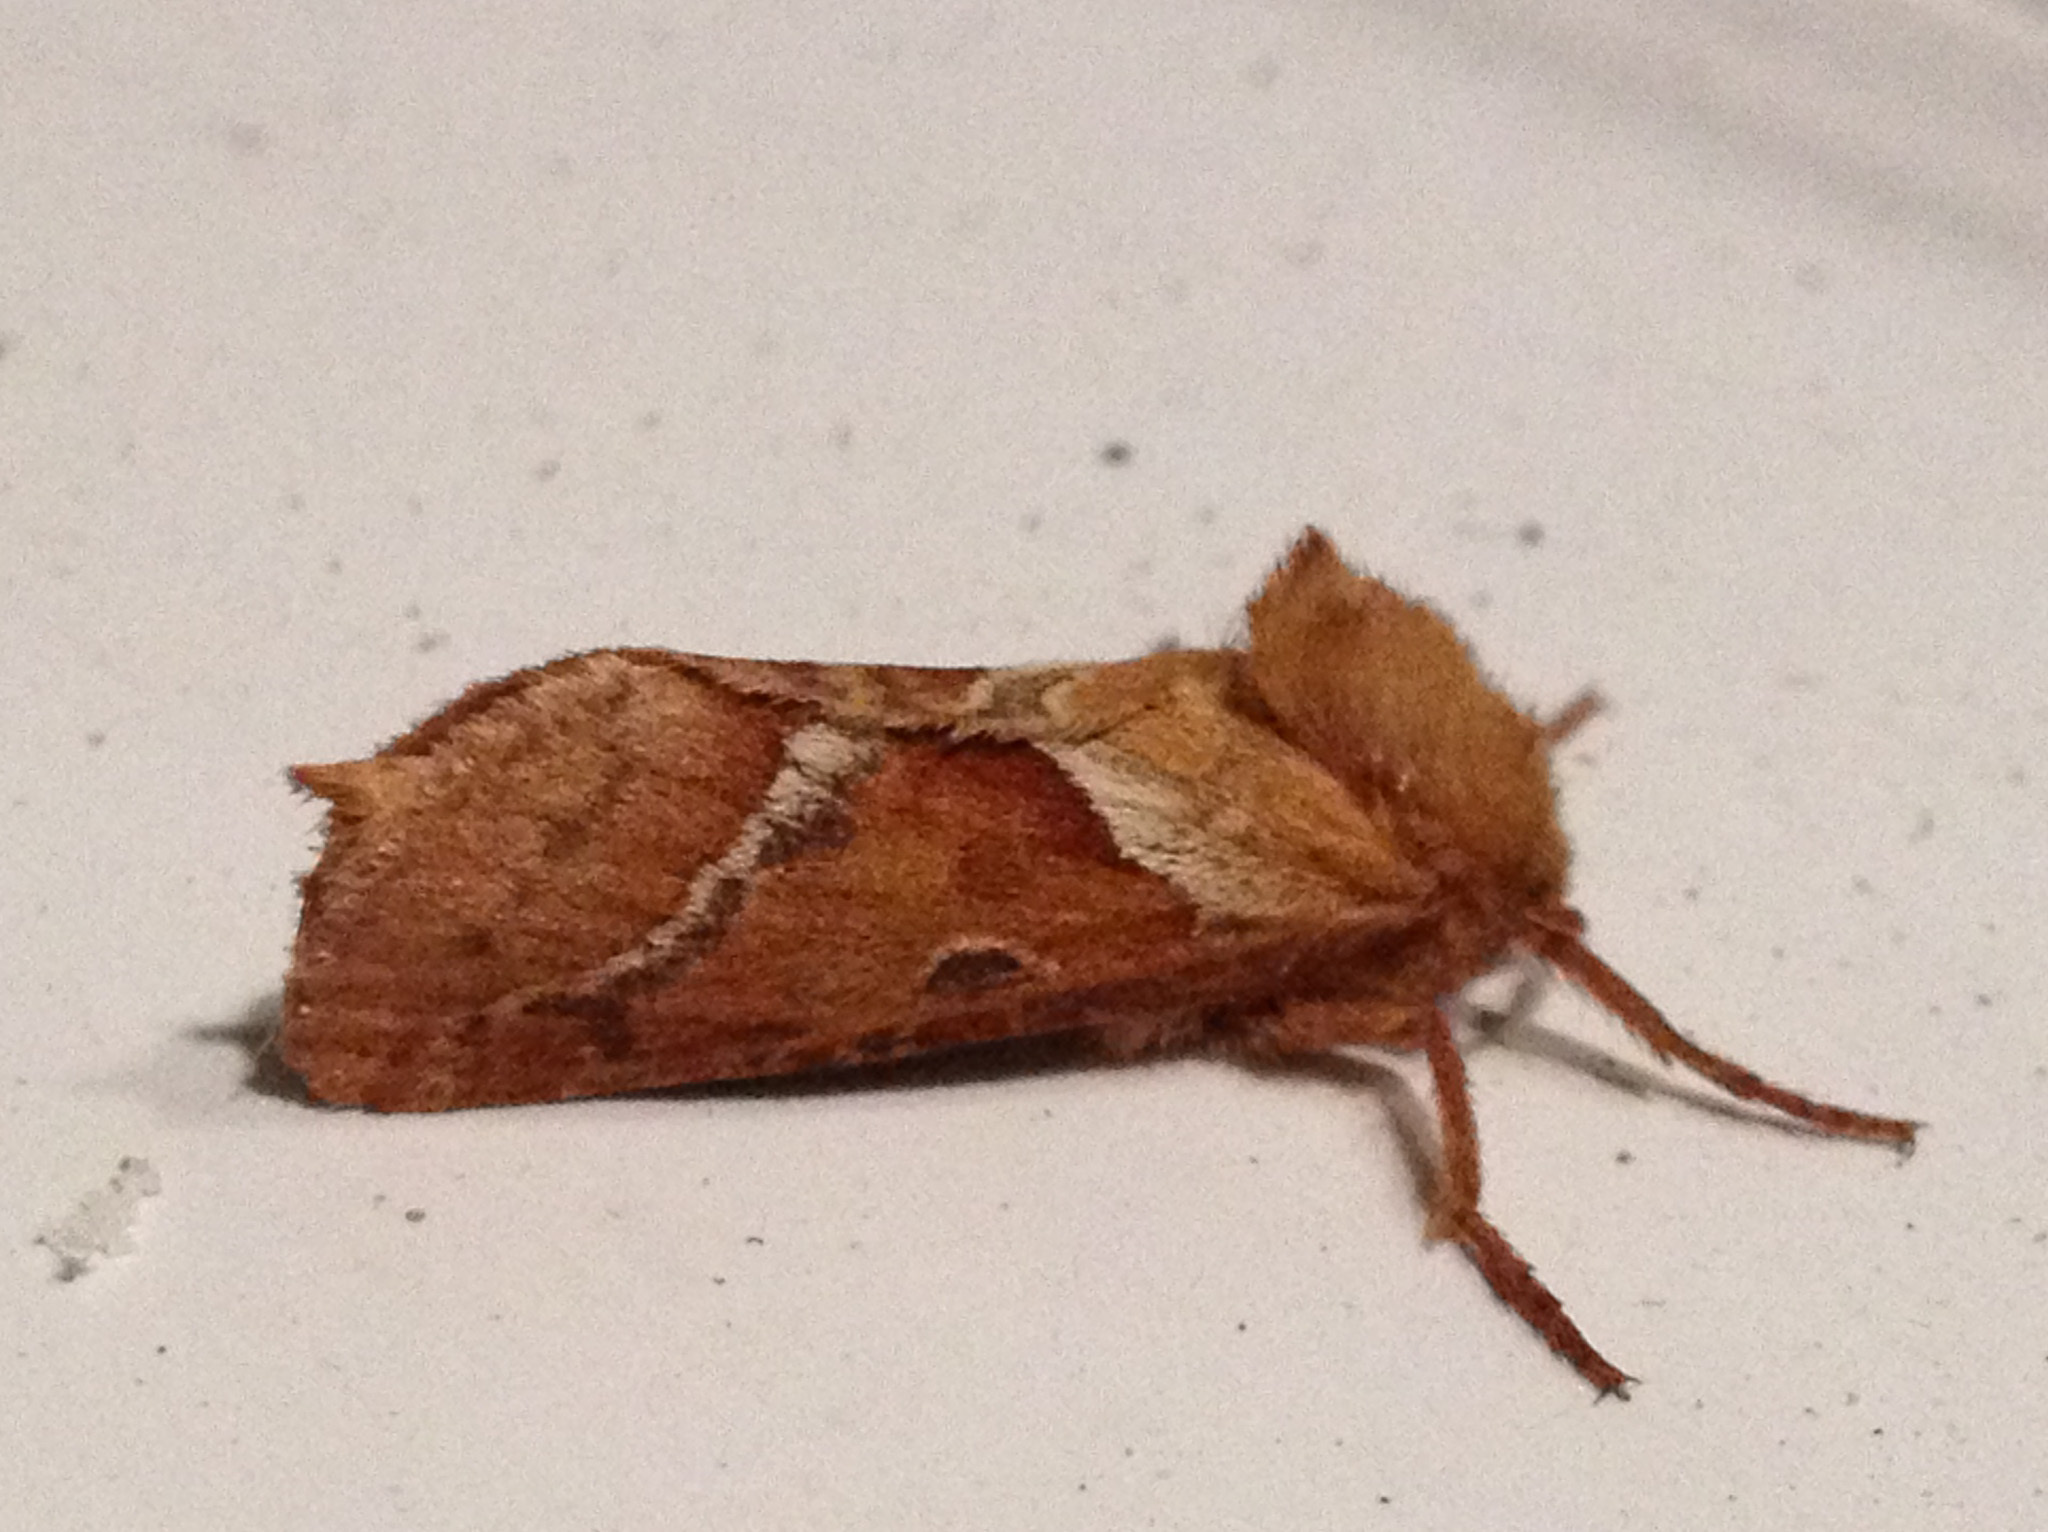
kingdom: Animalia
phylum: Arthropoda
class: Insecta
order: Lepidoptera
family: Hepialidae
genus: Triodia
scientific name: Triodia sylvina
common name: Orange swift
